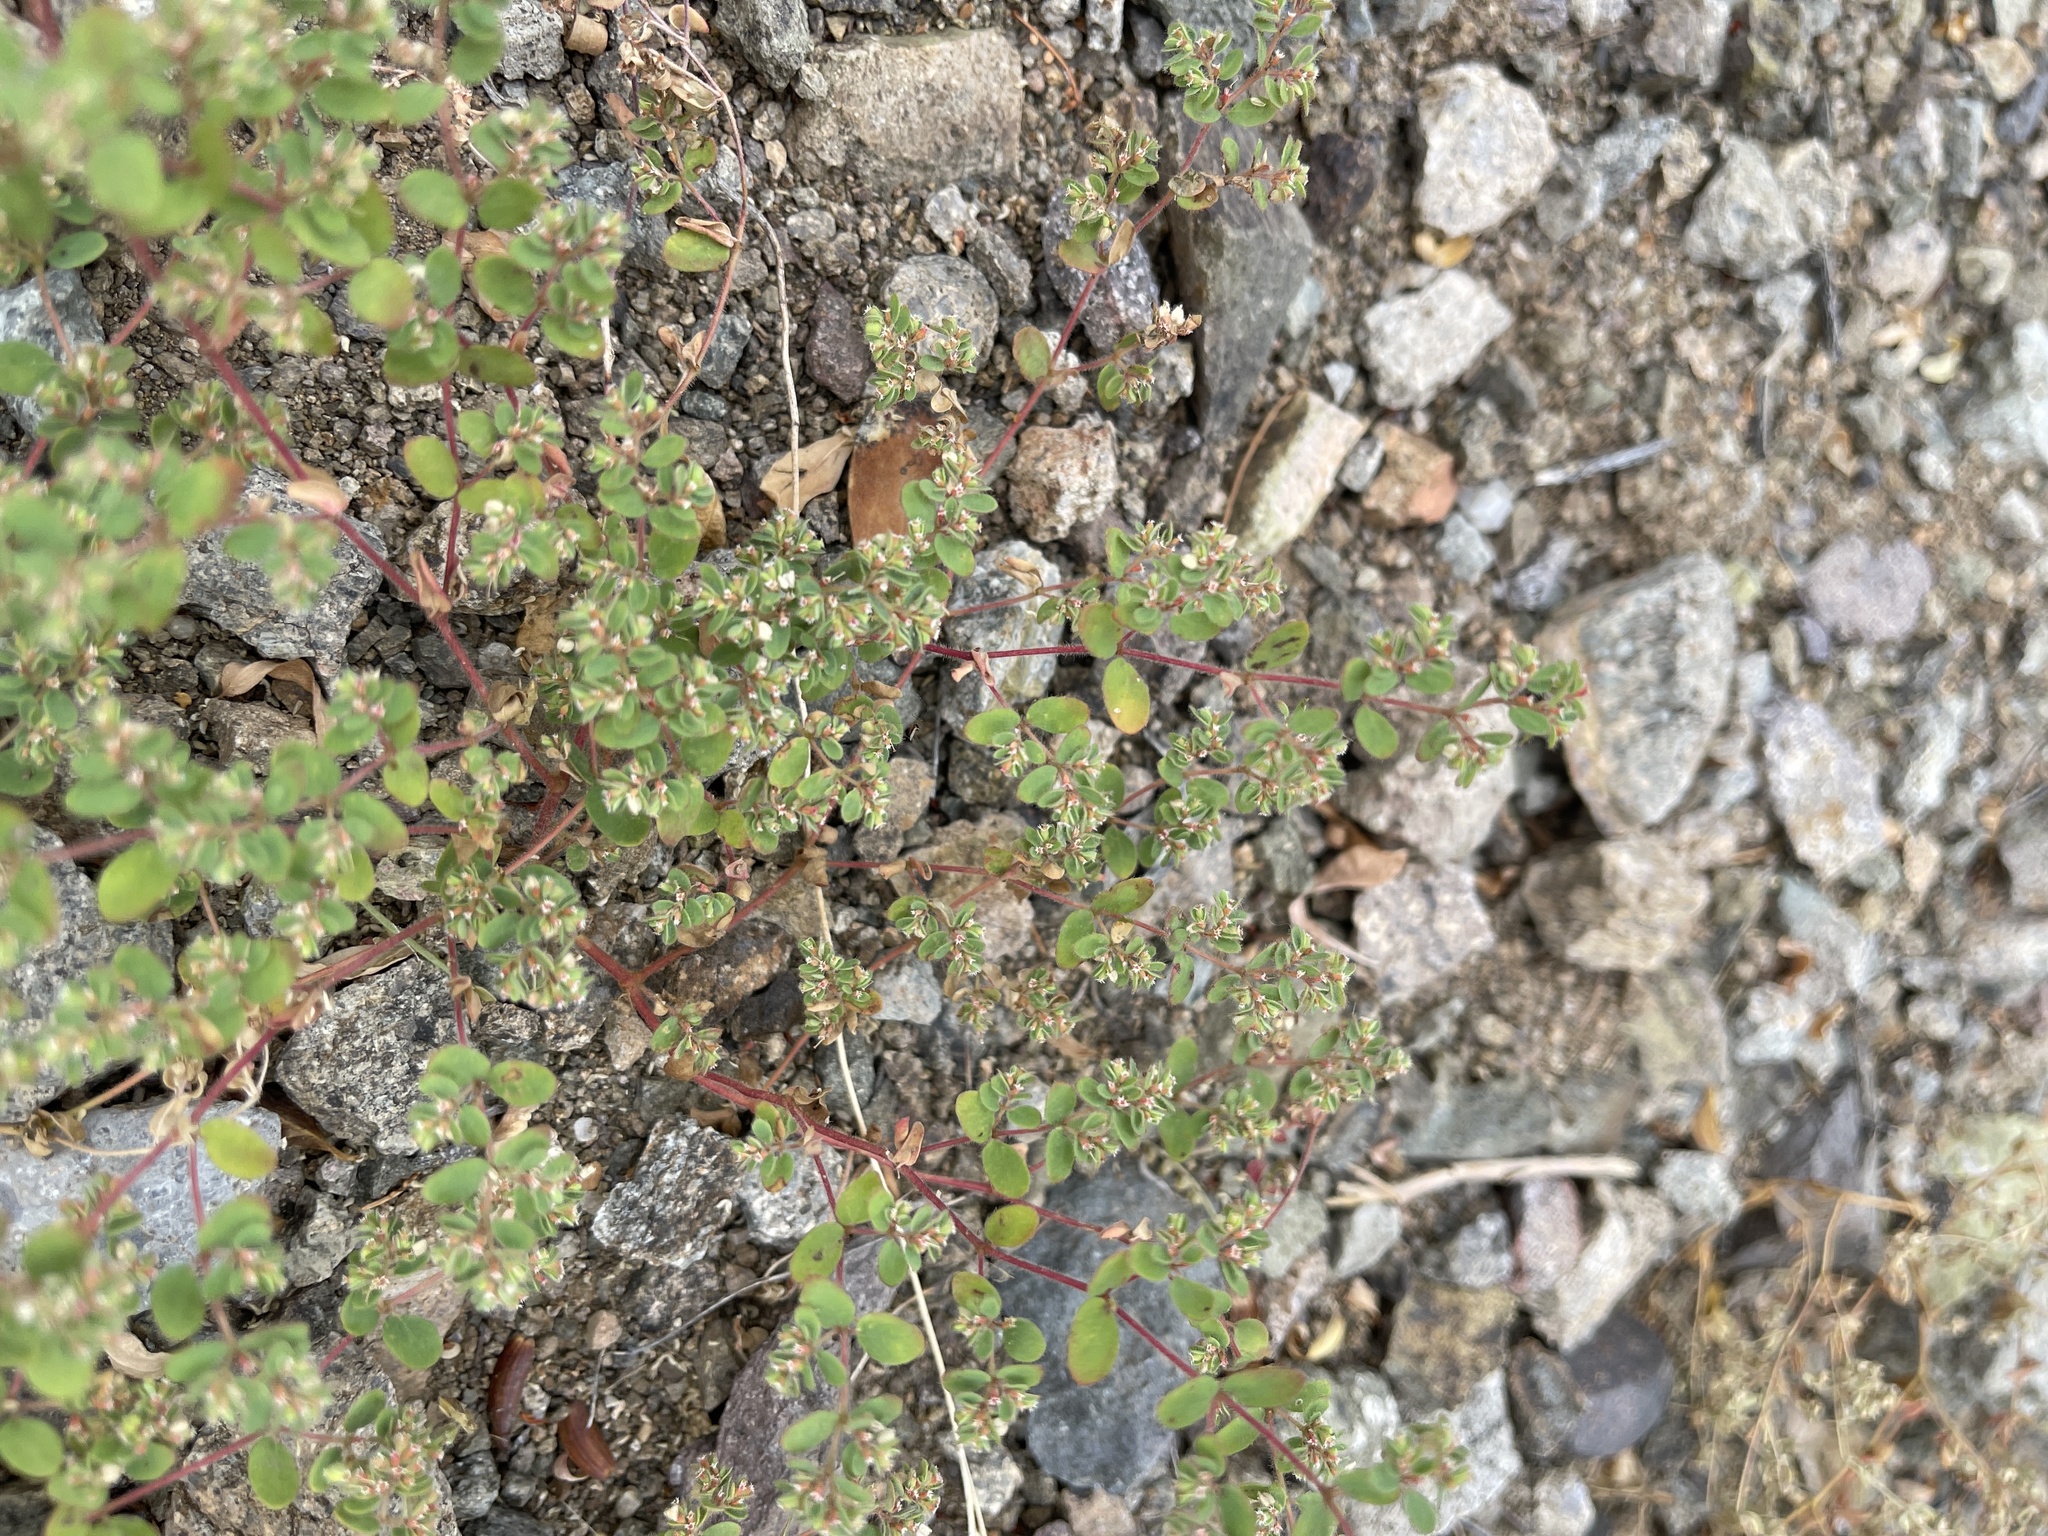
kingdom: Plantae
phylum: Tracheophyta
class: Magnoliopsida
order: Malpighiales
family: Euphorbiaceae
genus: Euphorbia
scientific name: Euphorbia setiloba
